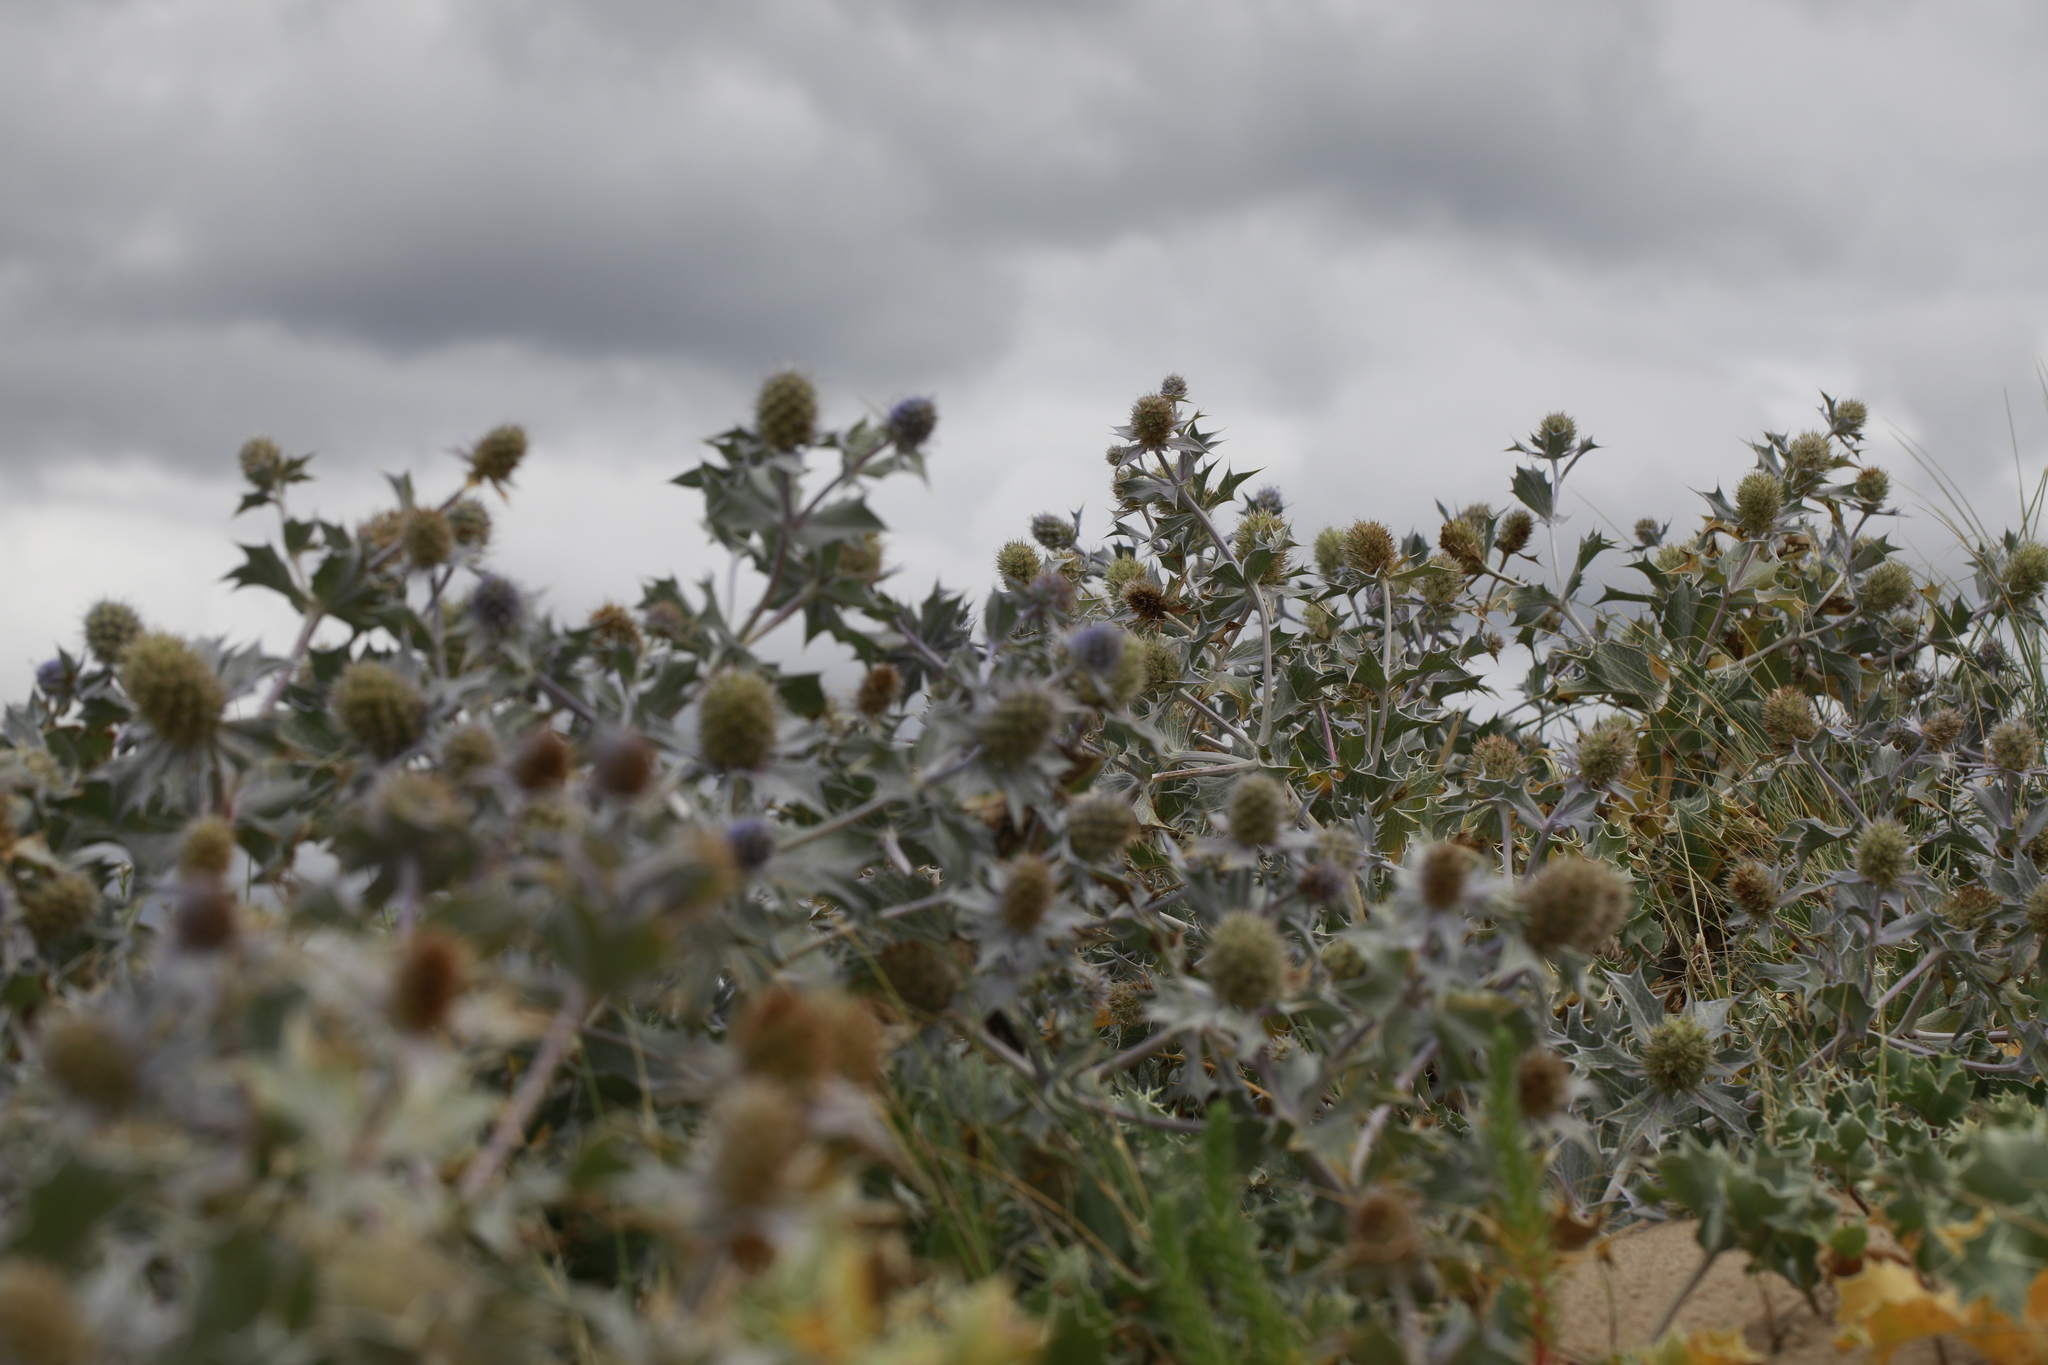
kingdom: Plantae
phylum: Tracheophyta
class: Magnoliopsida
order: Apiales
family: Apiaceae
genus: Eryngium
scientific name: Eryngium maritimum
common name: Sea-holly
